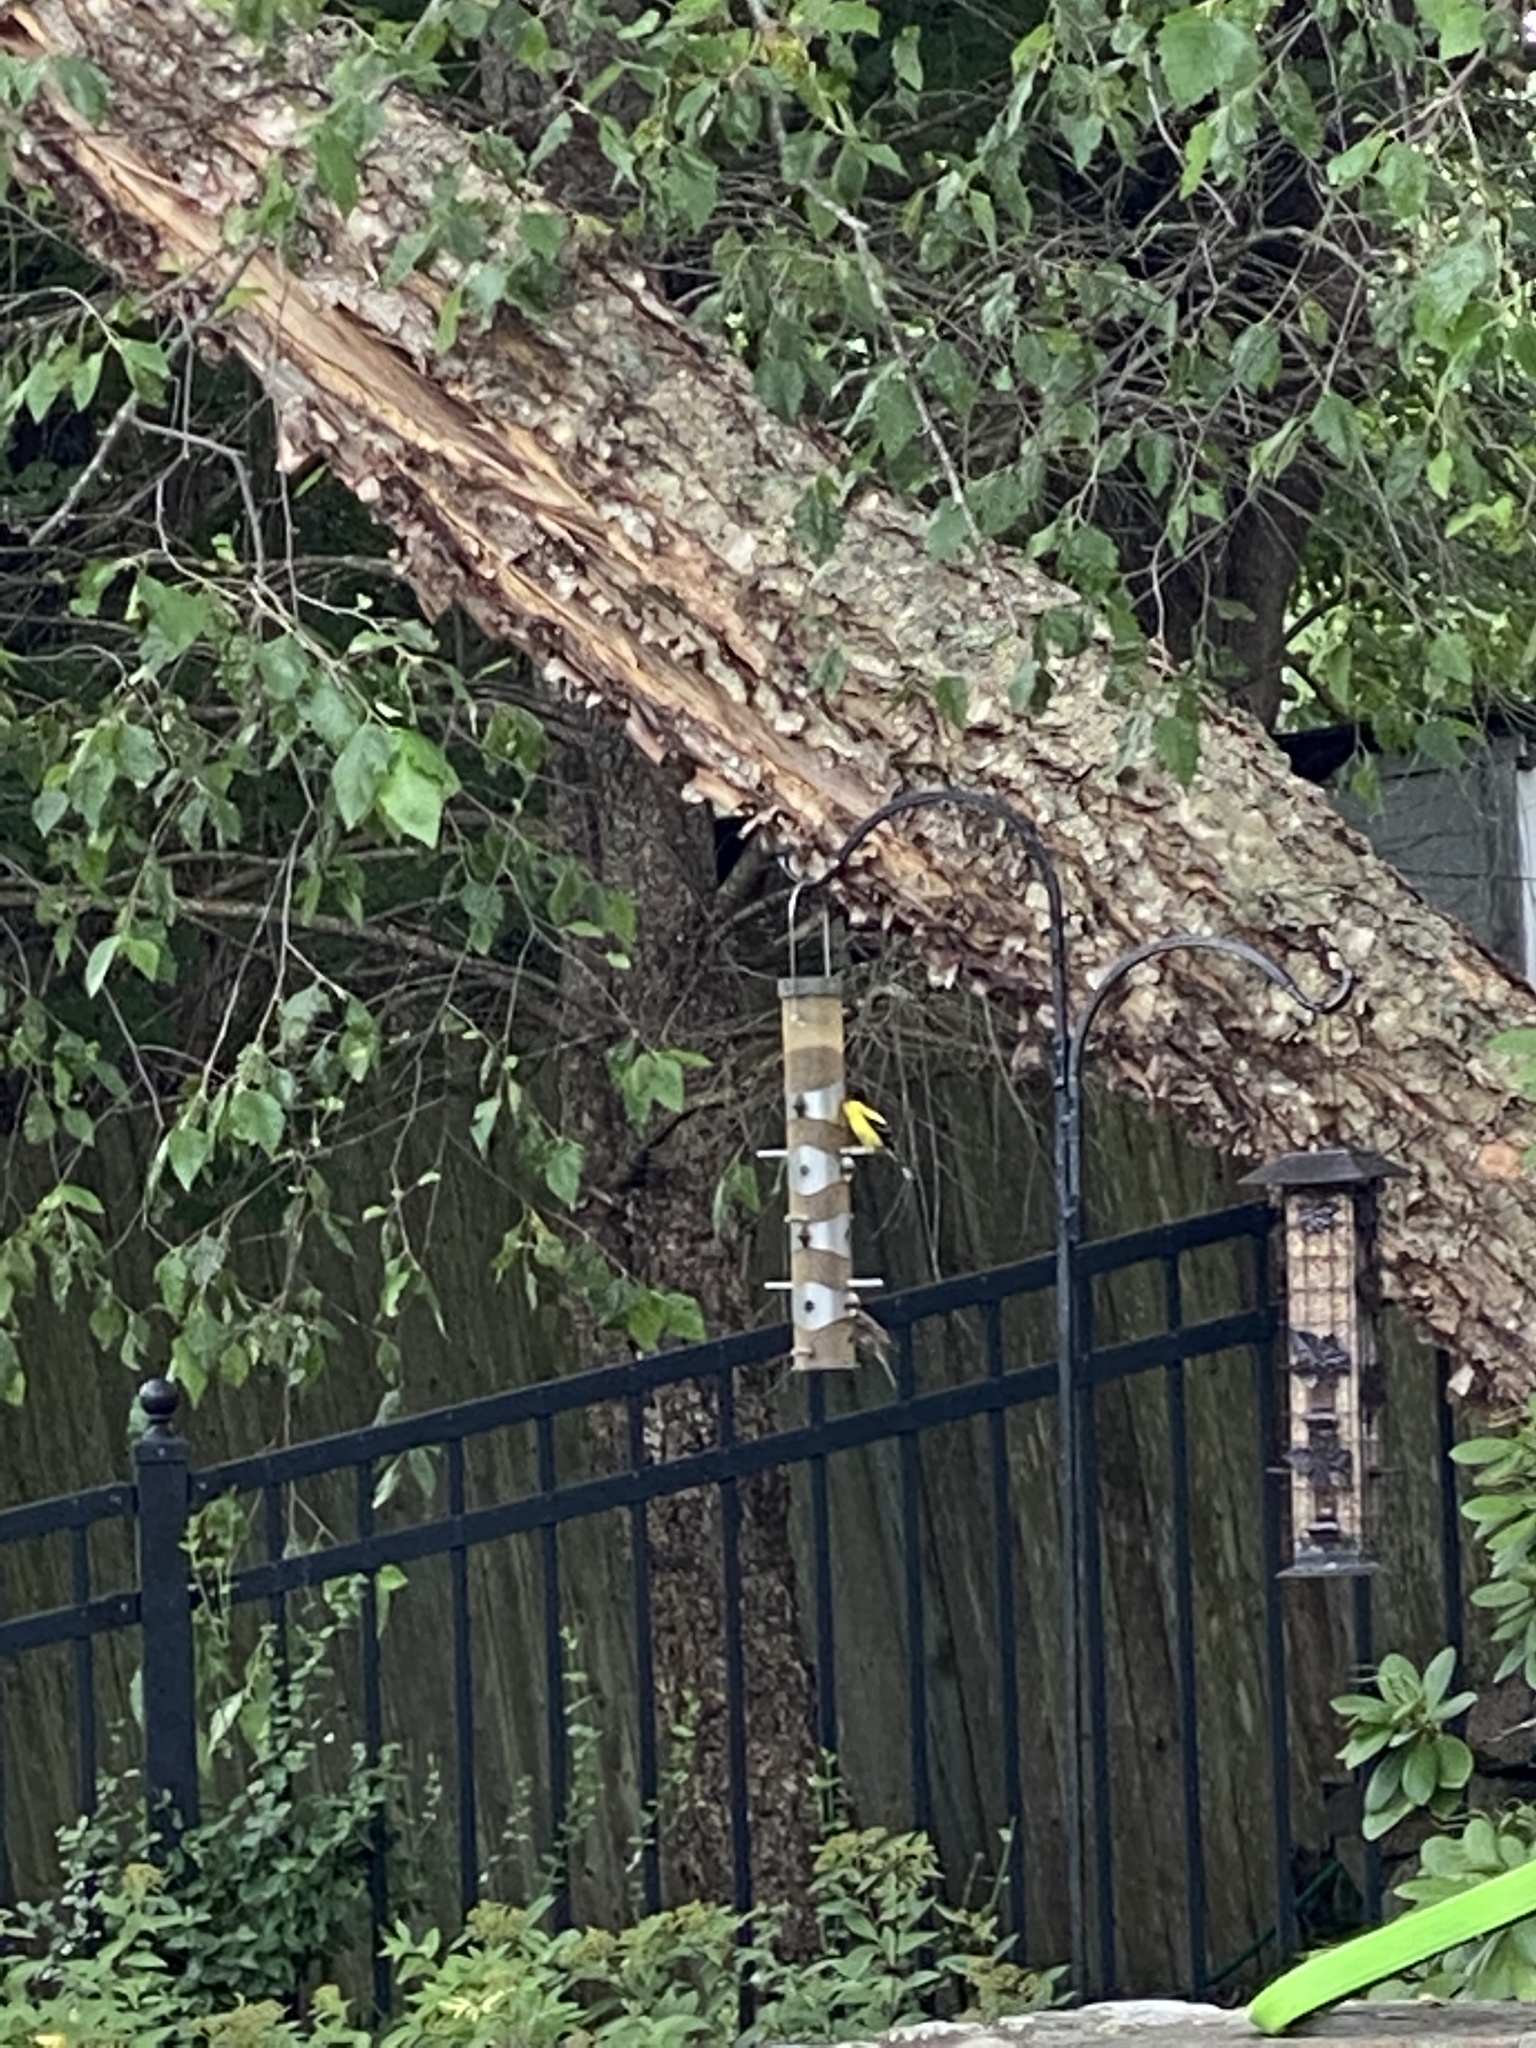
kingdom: Animalia
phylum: Chordata
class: Aves
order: Passeriformes
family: Fringillidae
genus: Spinus
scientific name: Spinus tristis
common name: American goldfinch
